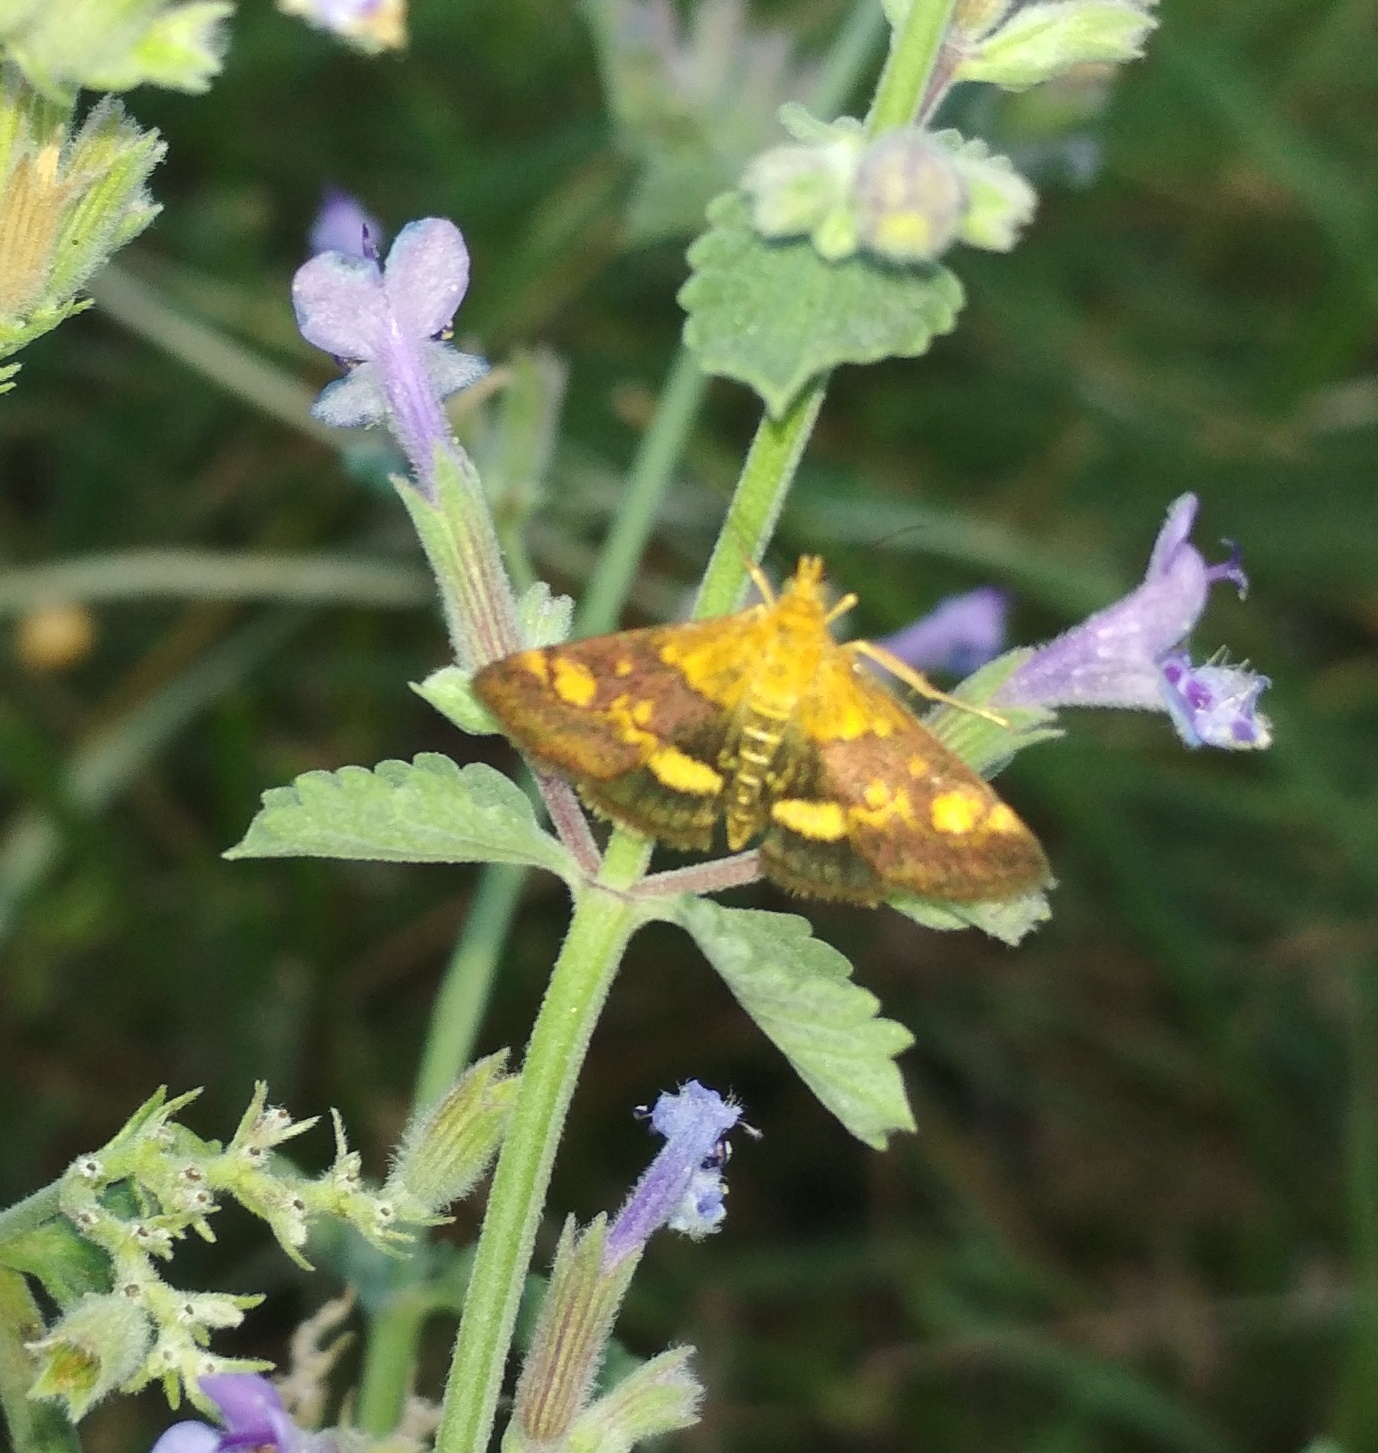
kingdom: Animalia
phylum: Arthropoda
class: Insecta
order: Lepidoptera
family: Crambidae
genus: Pyrausta
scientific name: Pyrausta aurata
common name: Small purple & gold
